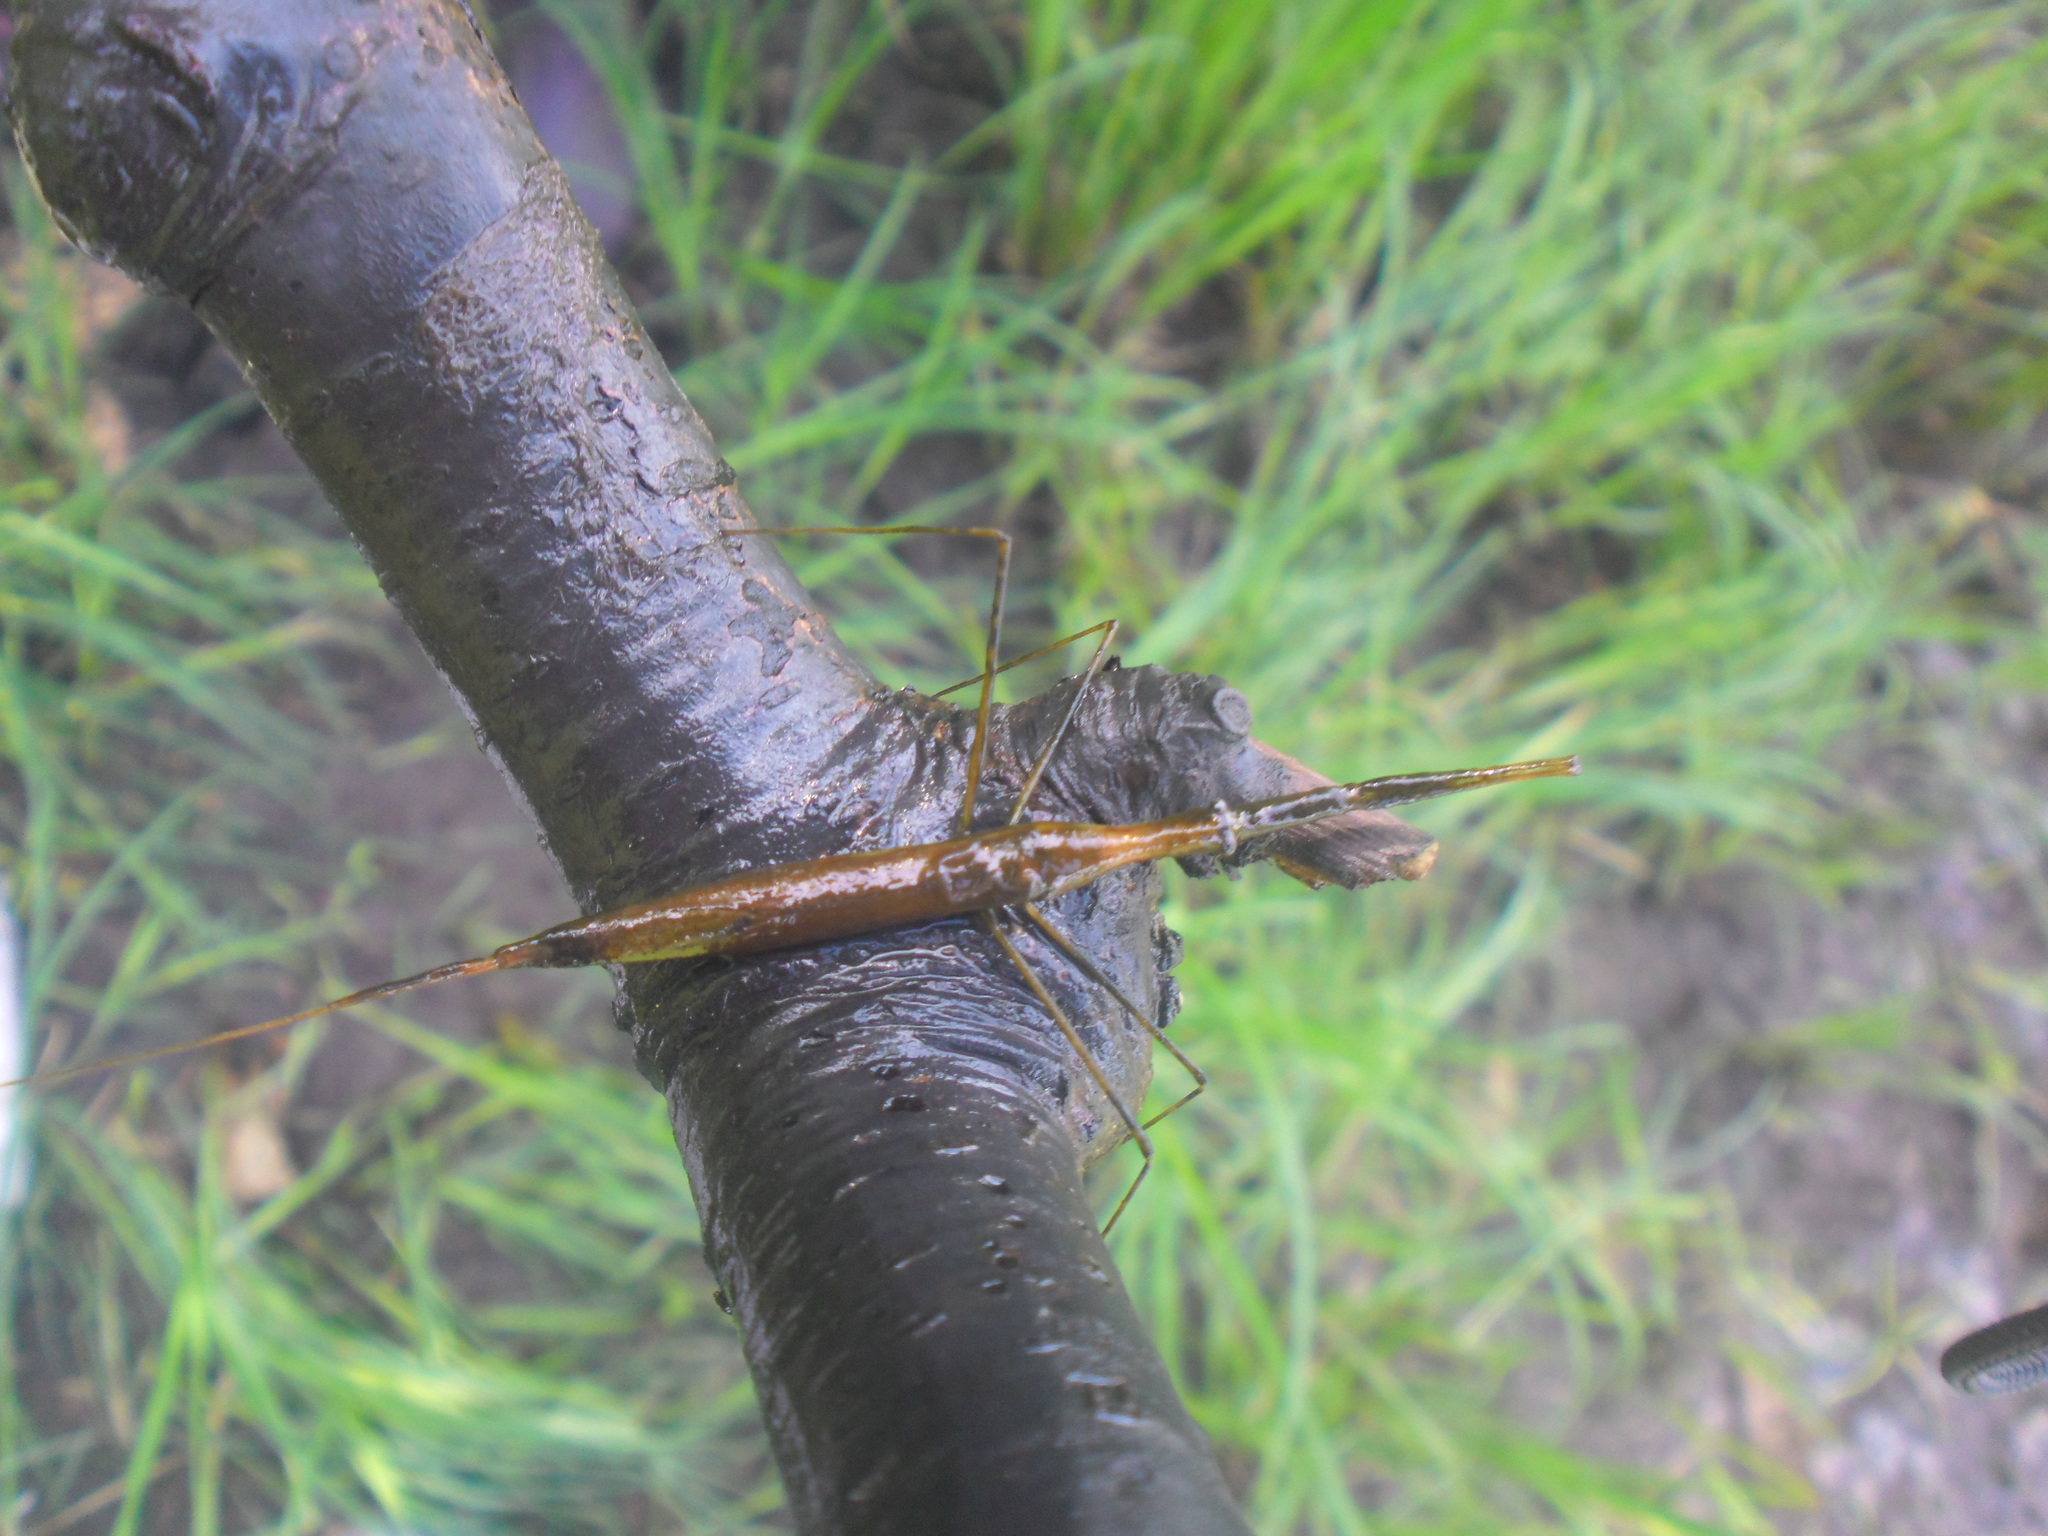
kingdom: Animalia
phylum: Arthropoda
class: Insecta
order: Hemiptera
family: Nepidae
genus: Ranatra
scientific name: Ranatra linearis
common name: Water stick insect
